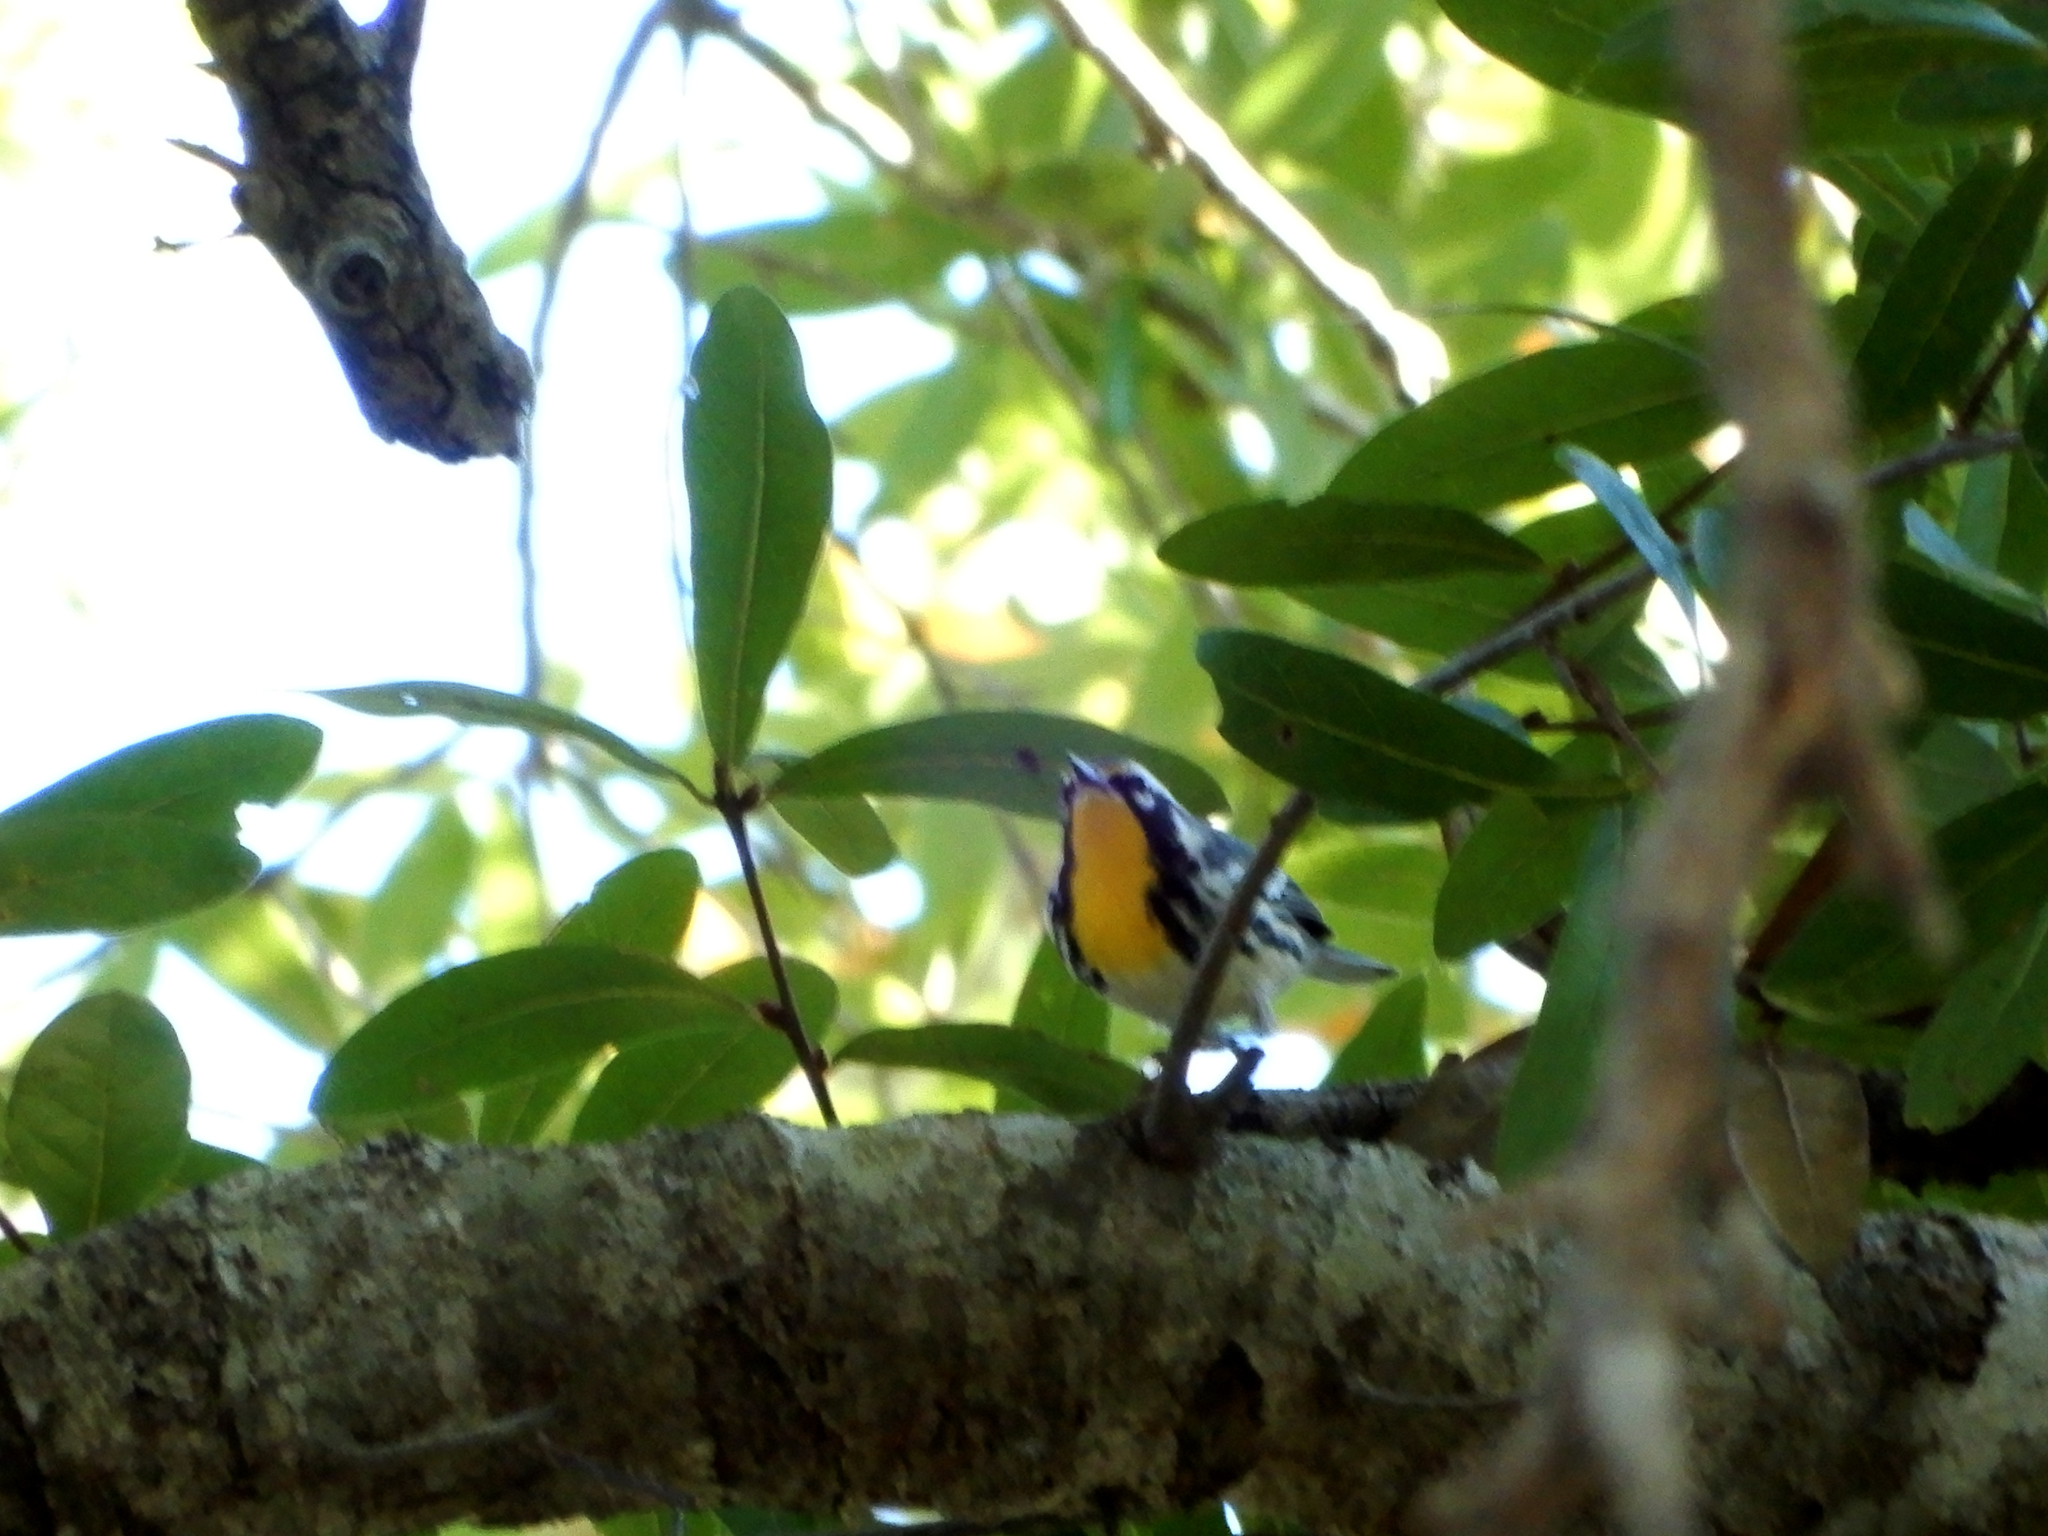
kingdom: Animalia
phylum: Chordata
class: Aves
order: Passeriformes
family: Parulidae
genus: Setophaga
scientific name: Setophaga dominica
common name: Yellow-throated warbler
